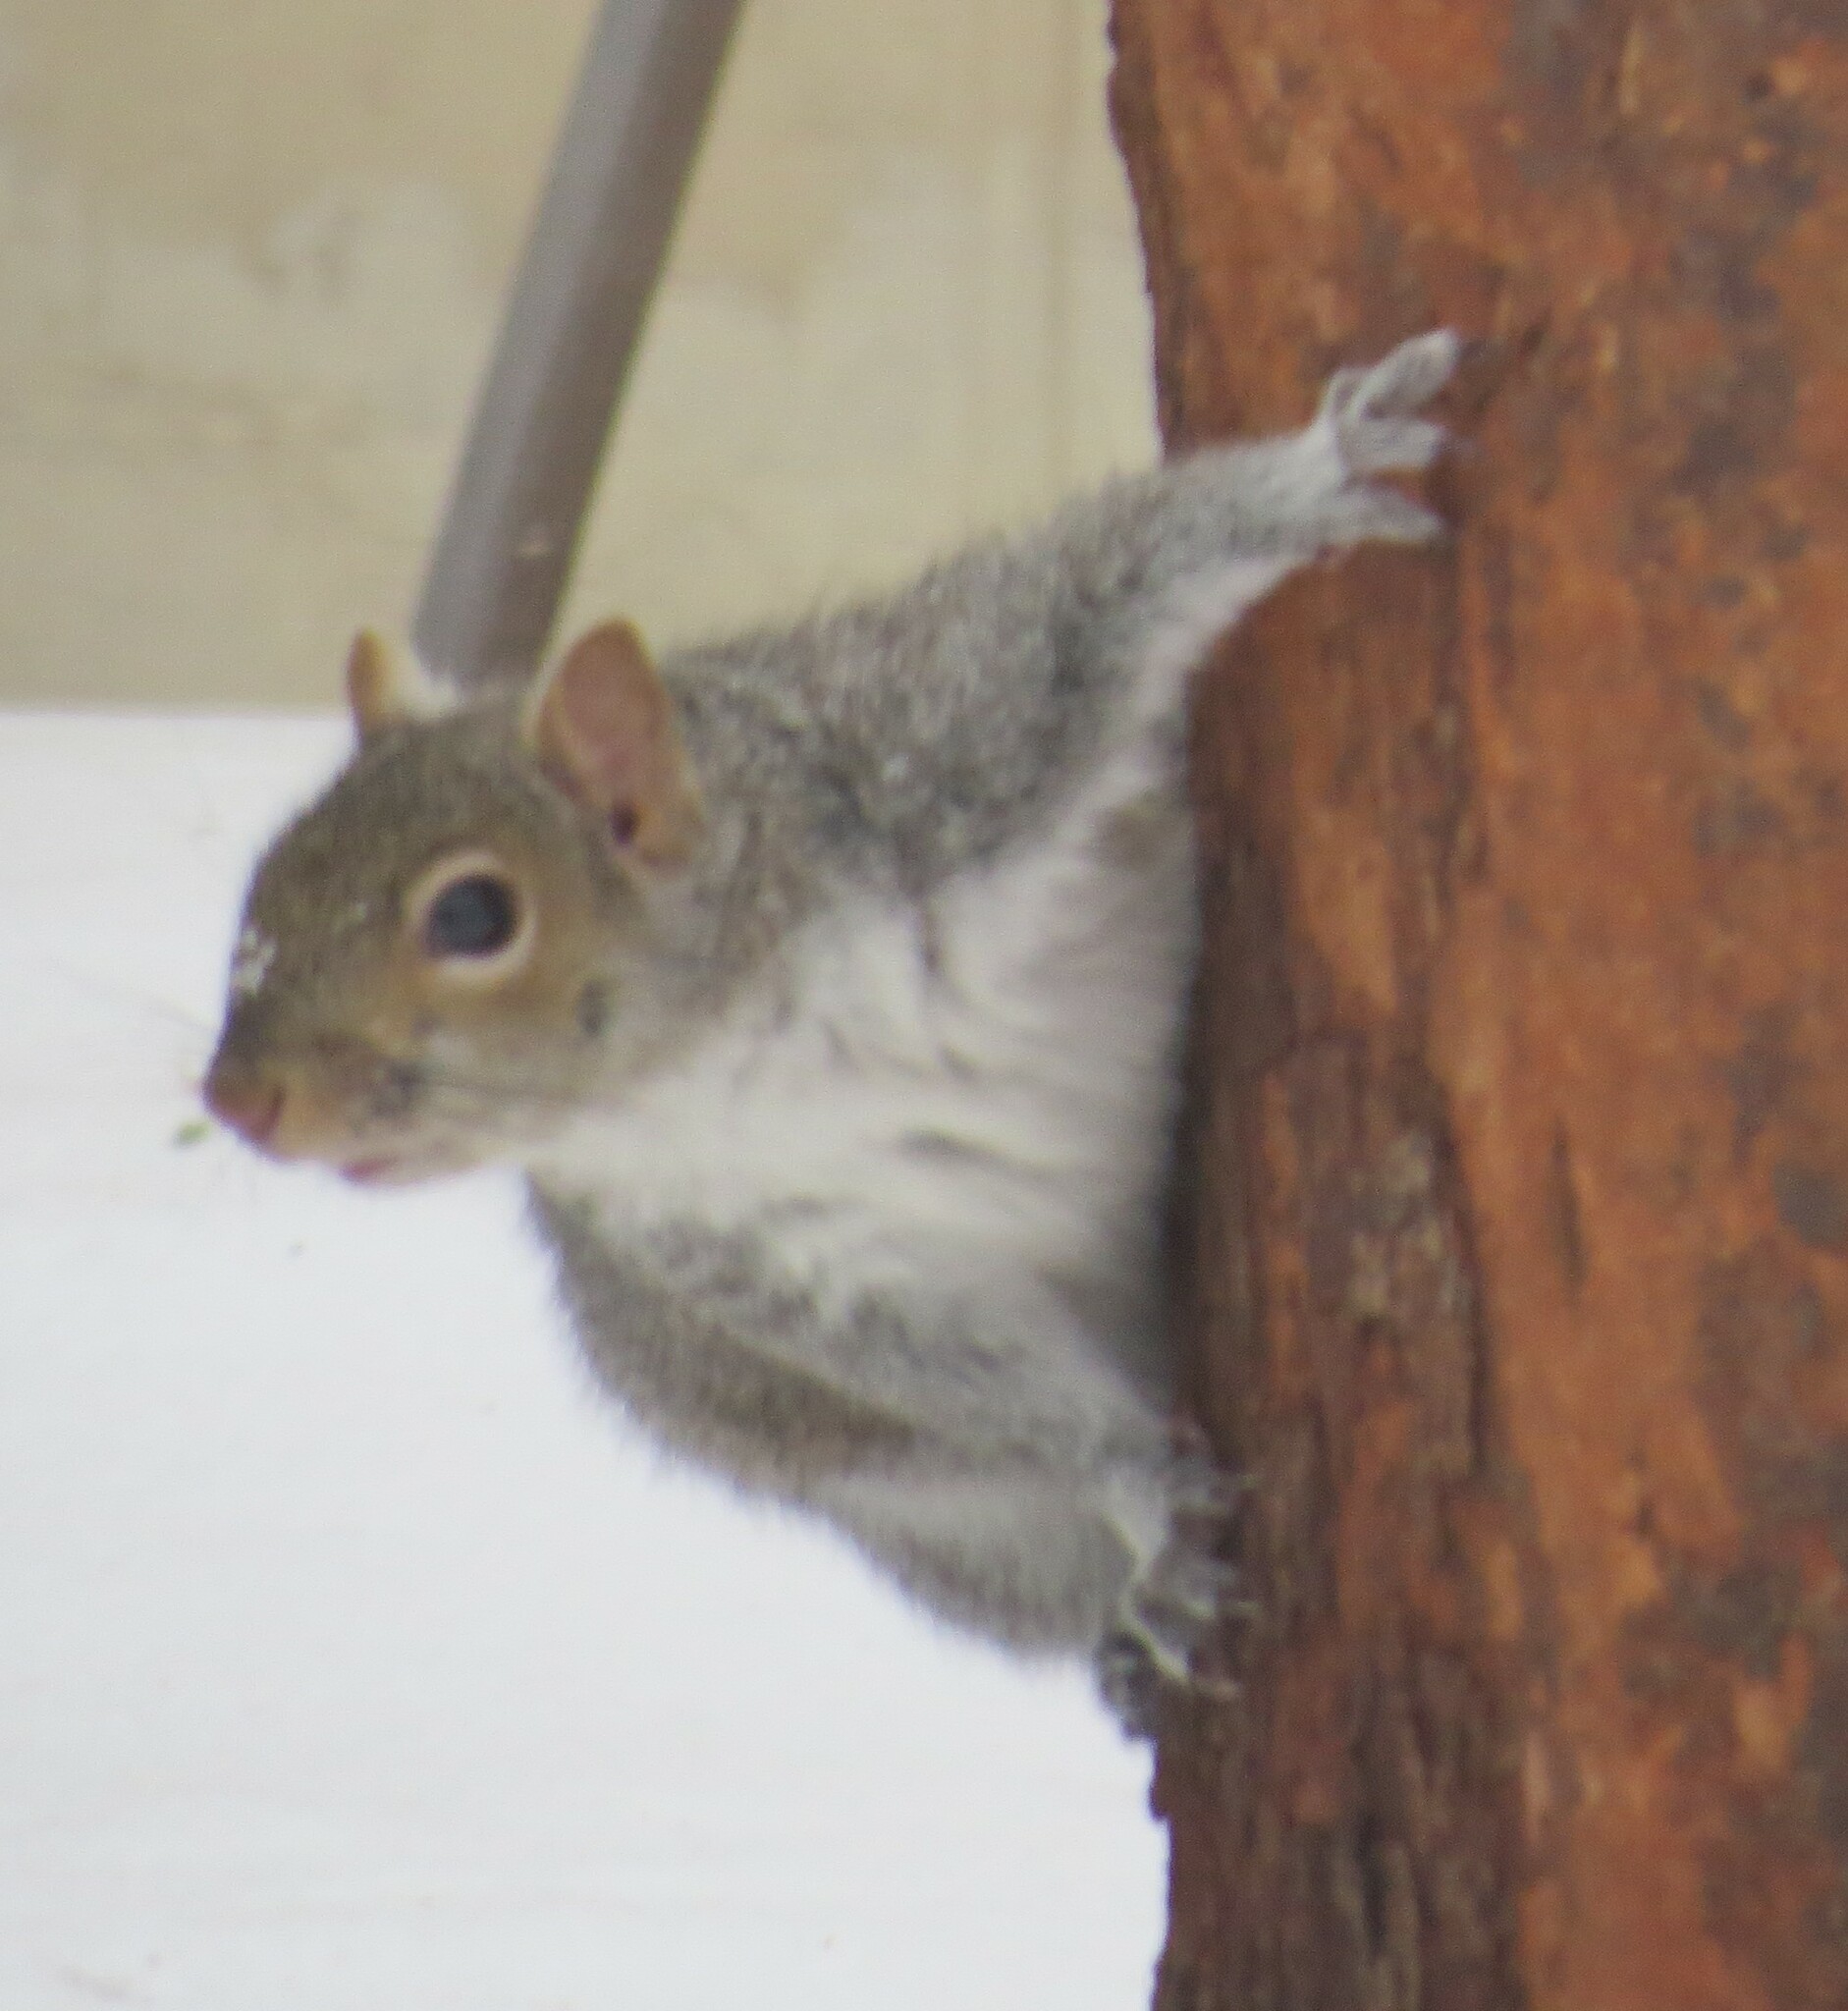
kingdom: Animalia
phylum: Chordata
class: Mammalia
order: Rodentia
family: Sciuridae
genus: Sciurus
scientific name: Sciurus carolinensis
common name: Eastern gray squirrel
